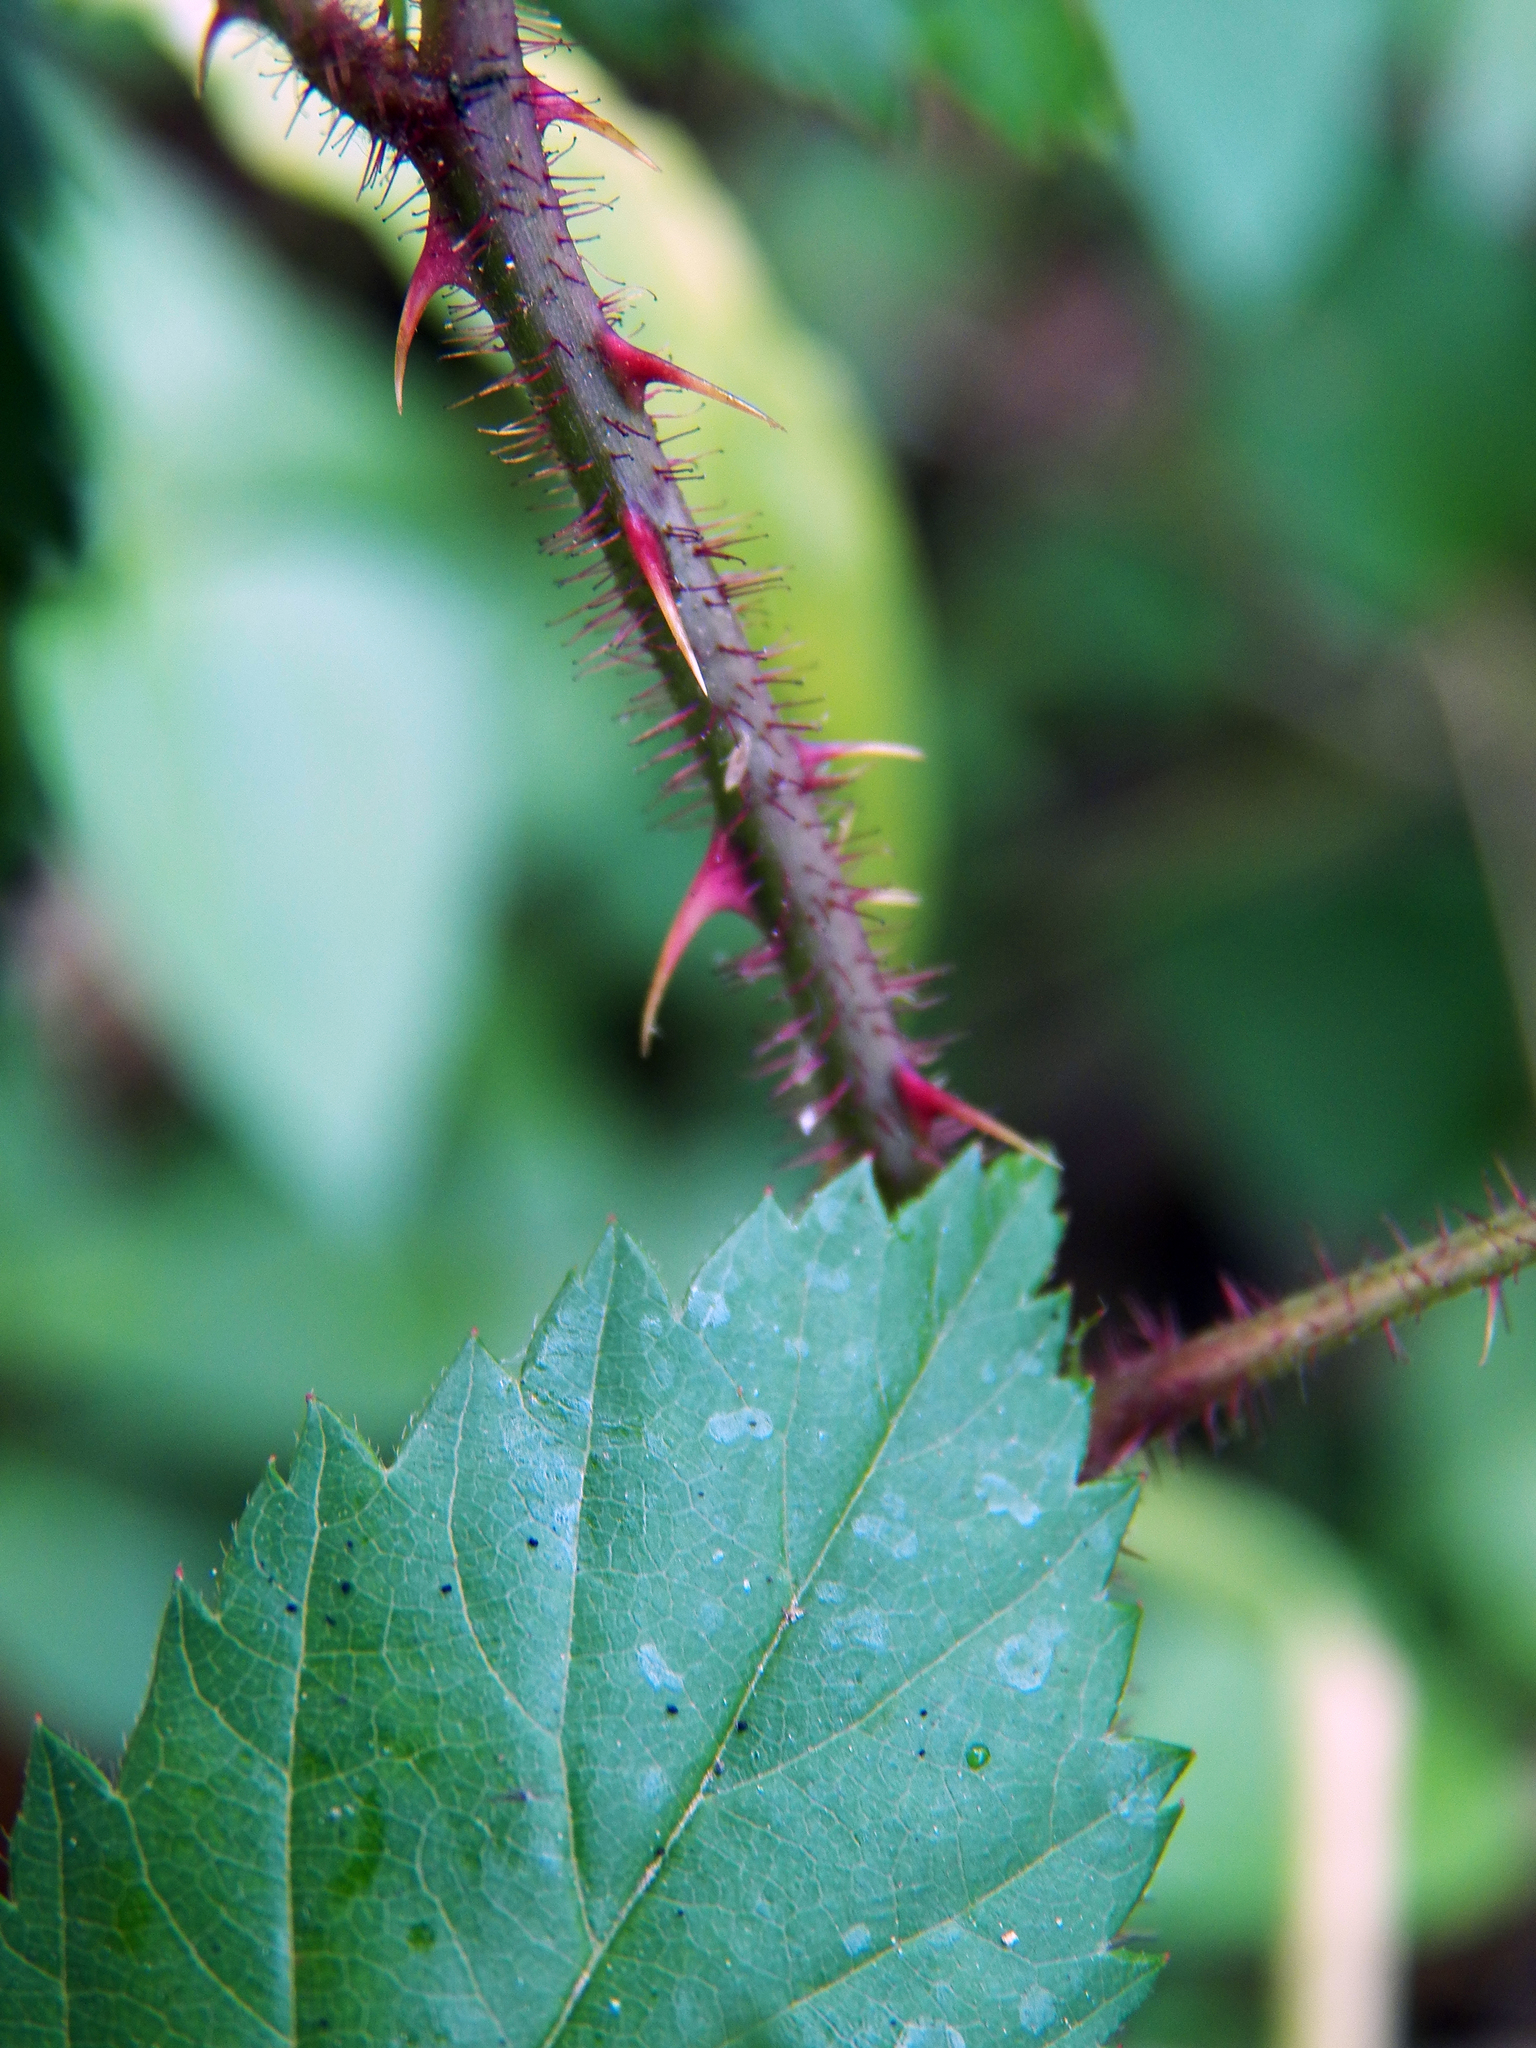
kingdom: Plantae
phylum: Tracheophyta
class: Magnoliopsida
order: Rosales
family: Rosaceae
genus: Rubus
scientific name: Rubus trivialis
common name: Southern dewberry
